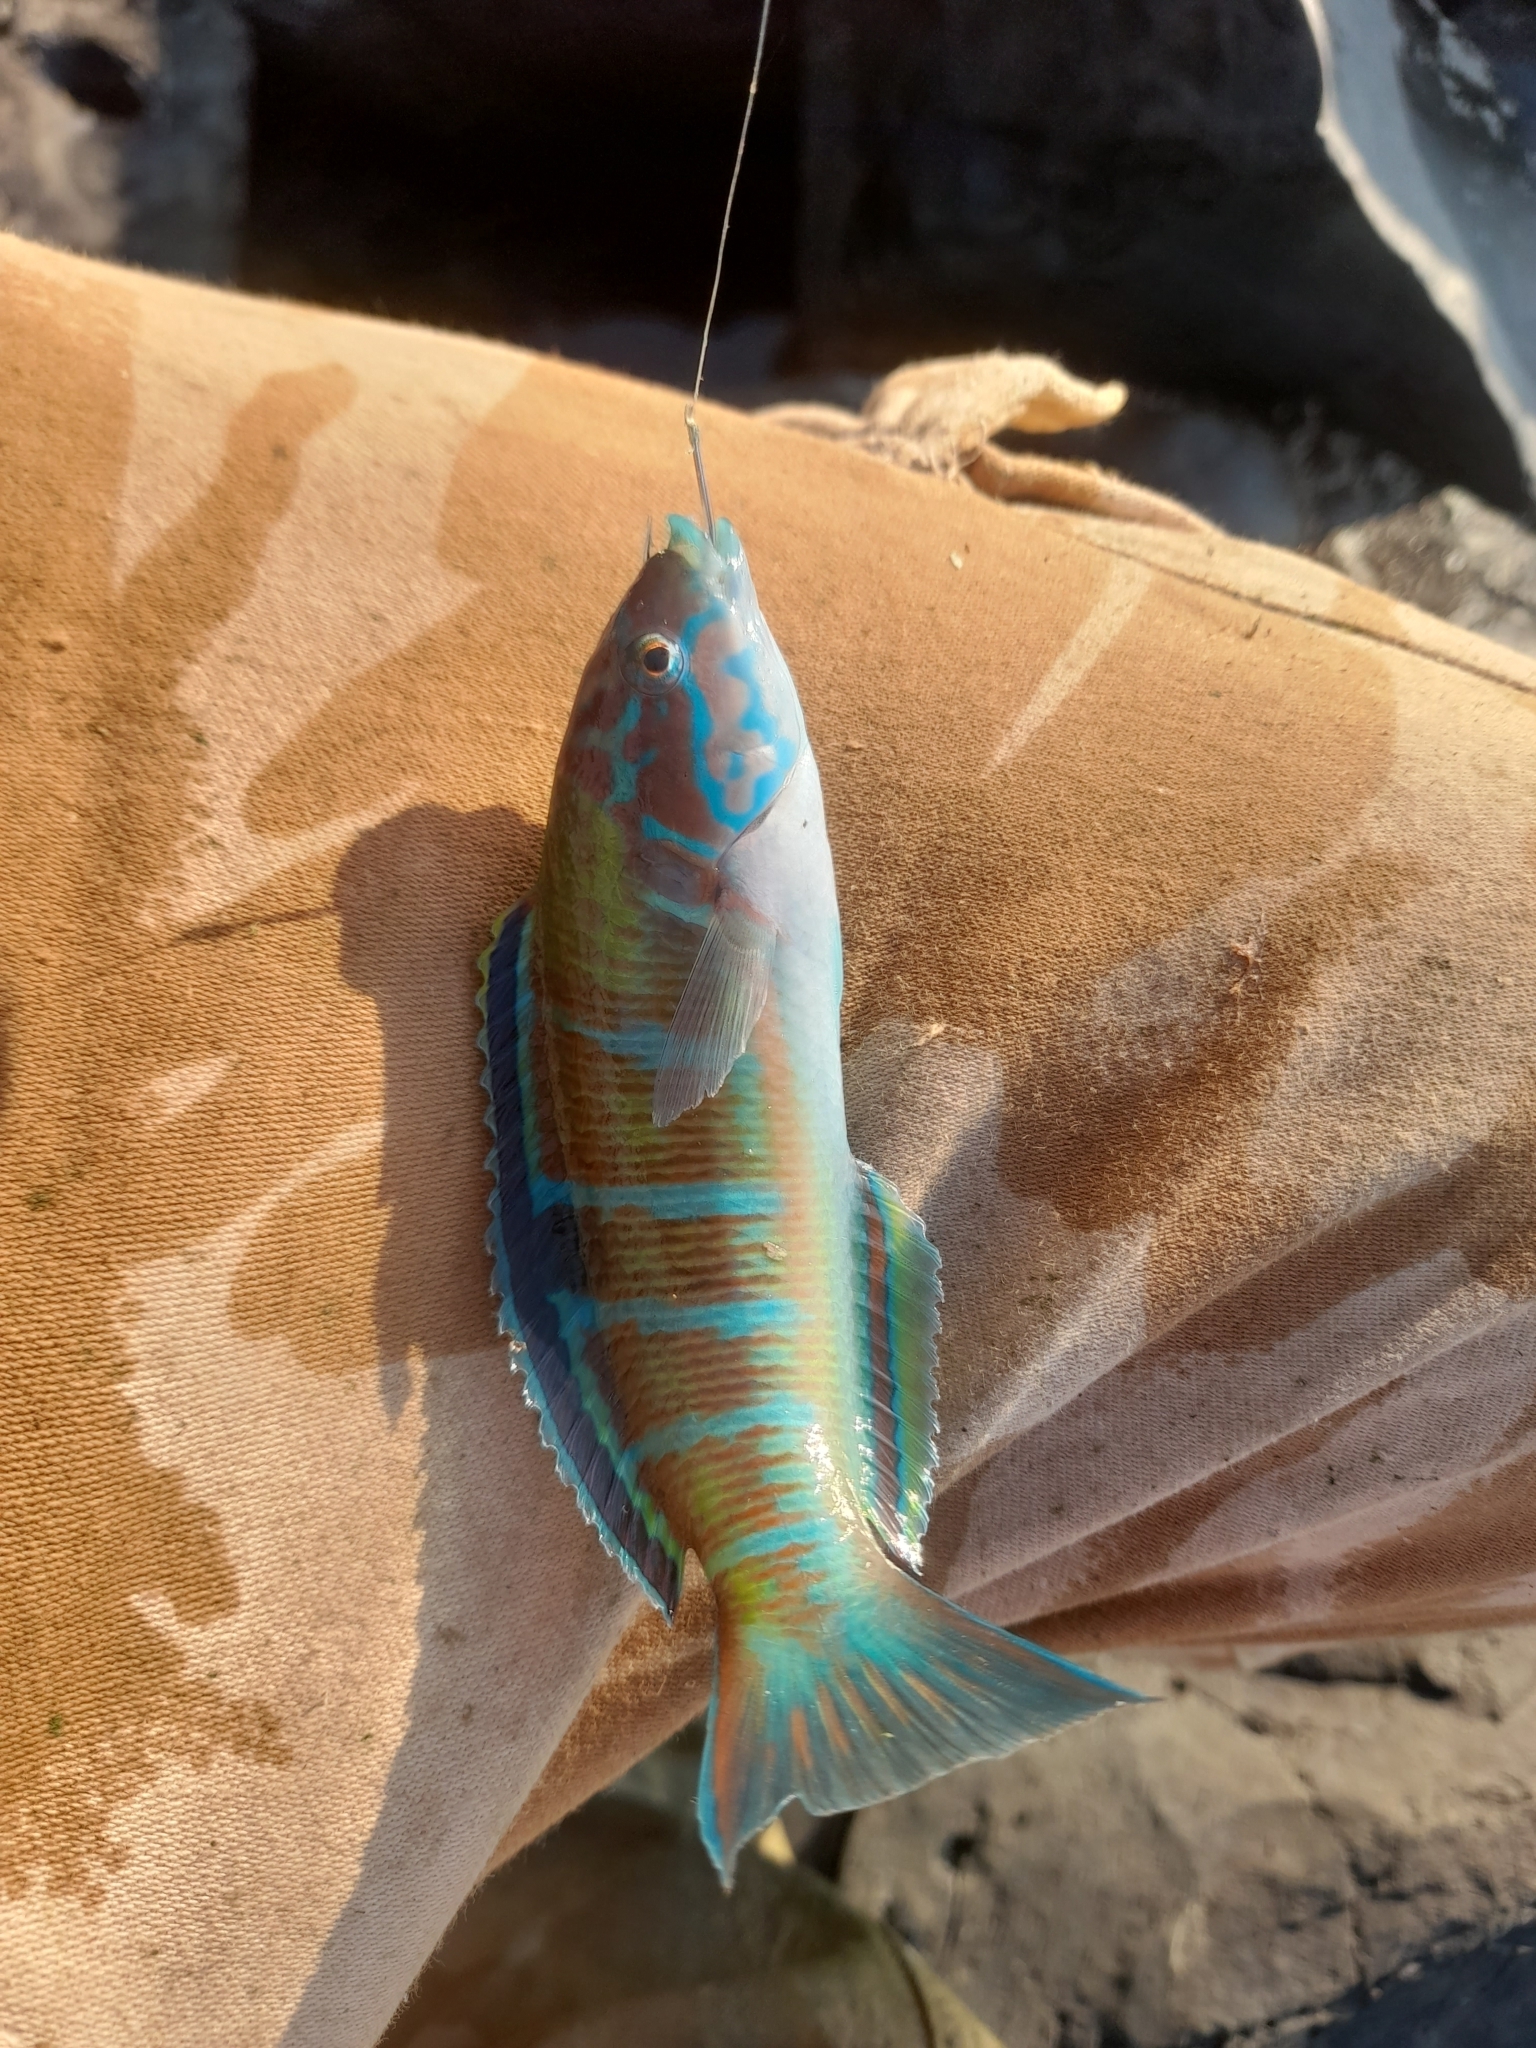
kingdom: Animalia
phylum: Chordata
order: Perciformes
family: Labridae
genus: Thalassoma
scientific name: Thalassoma pavo
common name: Ornate wrasse
